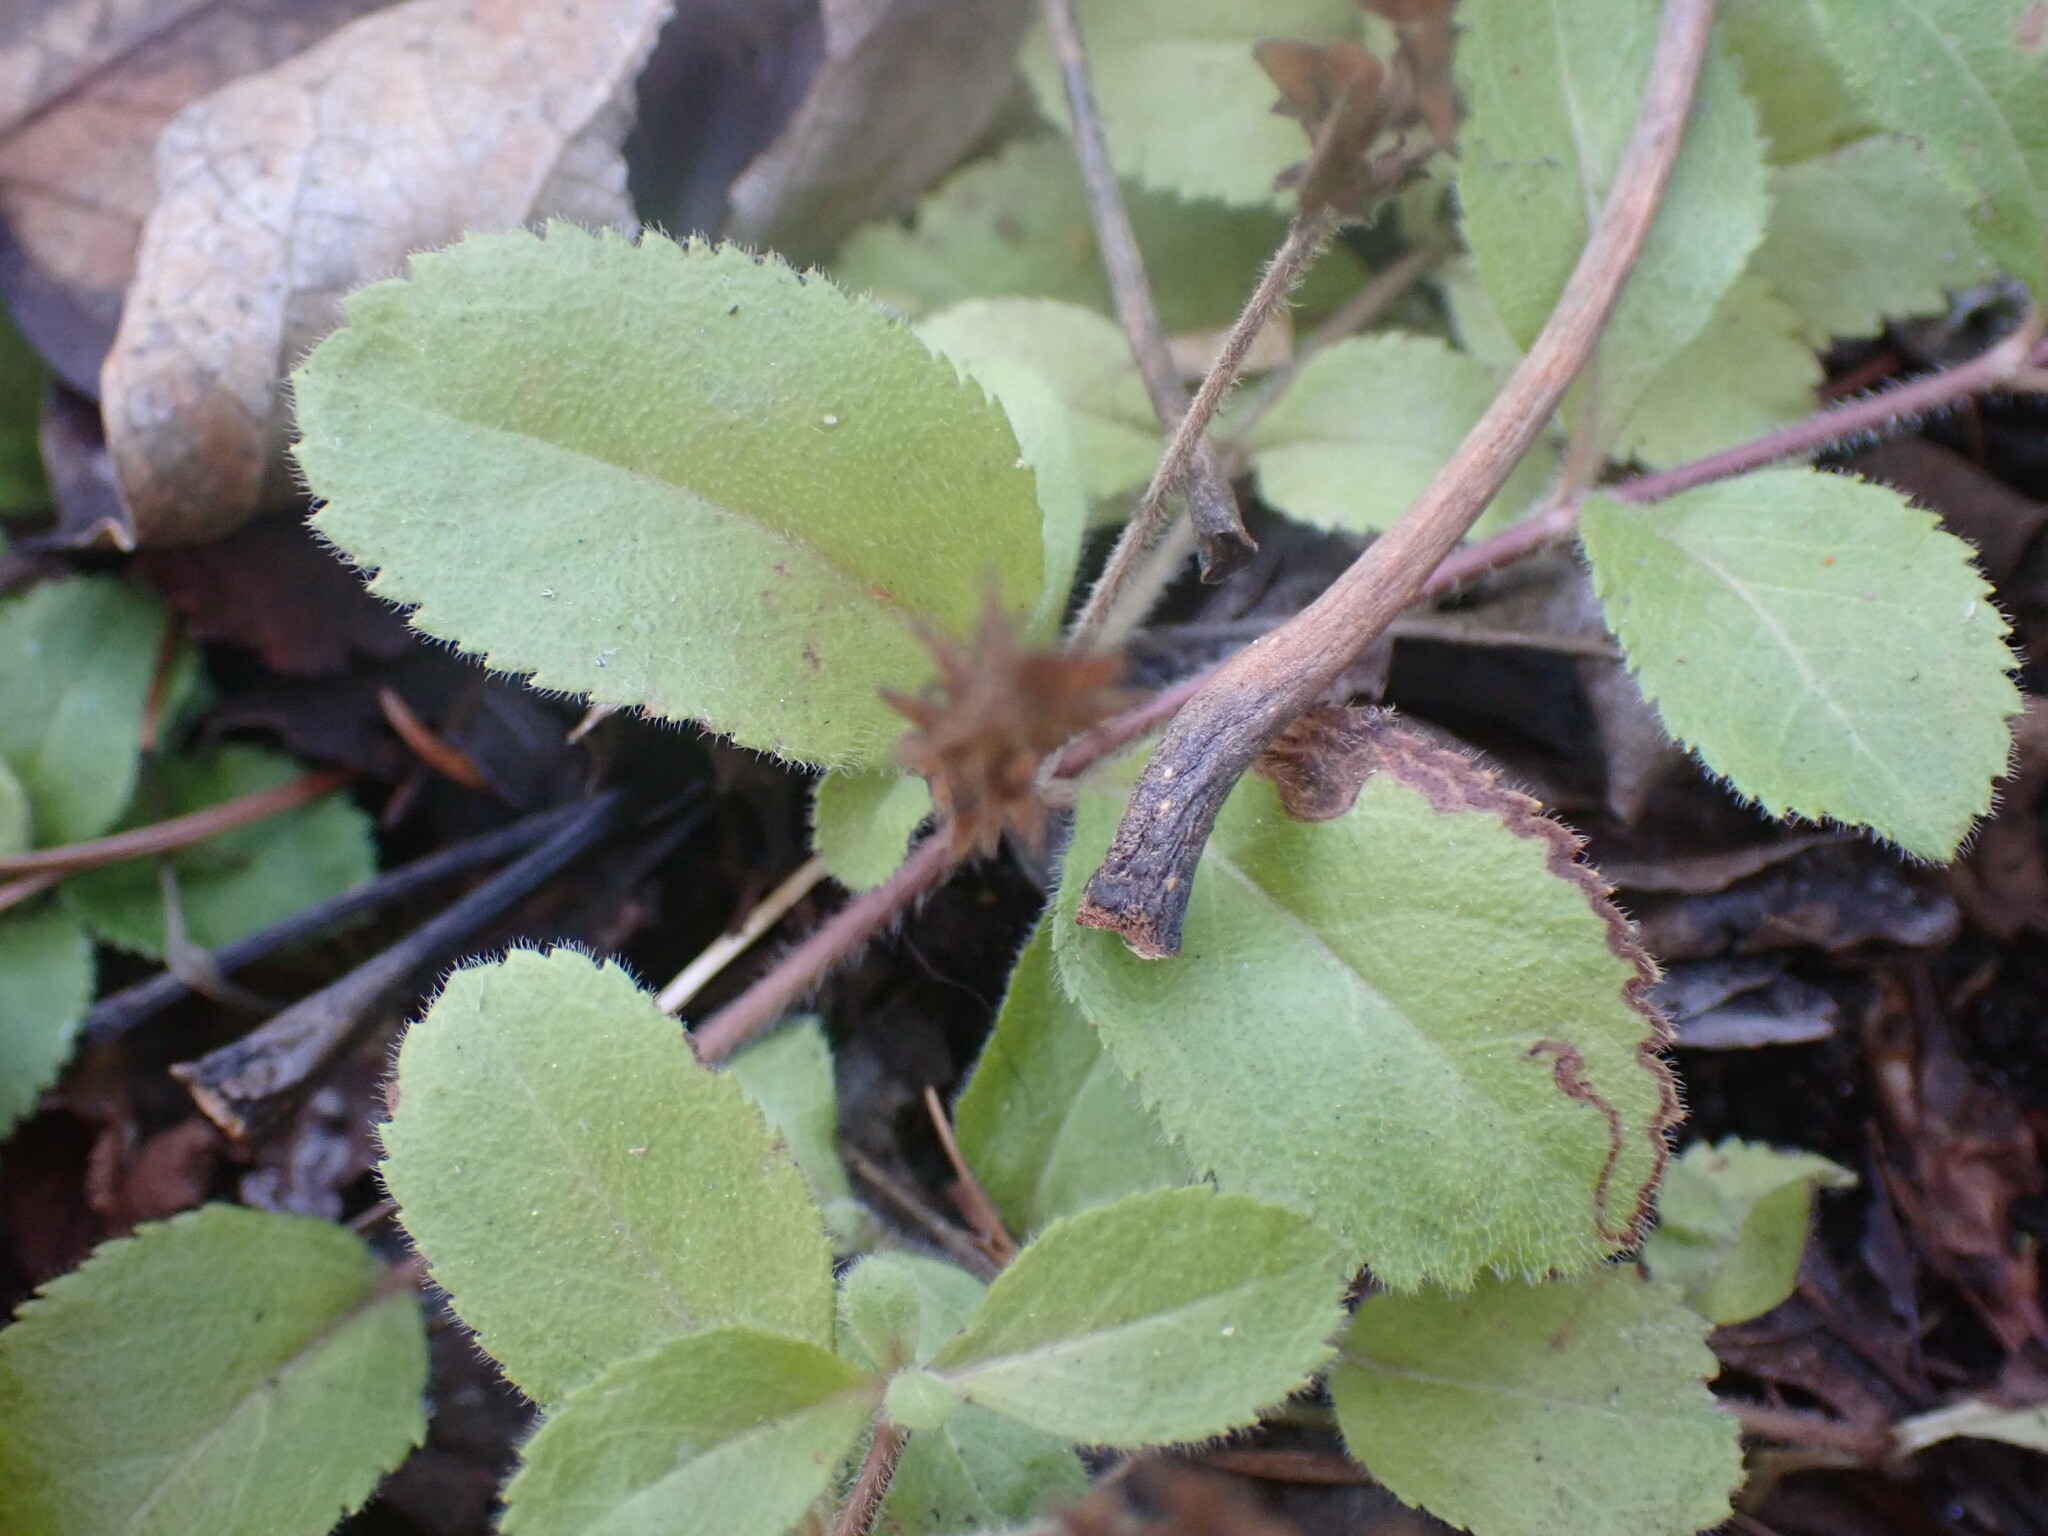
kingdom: Plantae
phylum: Tracheophyta
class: Magnoliopsida
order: Lamiales
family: Plantaginaceae
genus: Veronica
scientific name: Veronica officinalis
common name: Common speedwell
